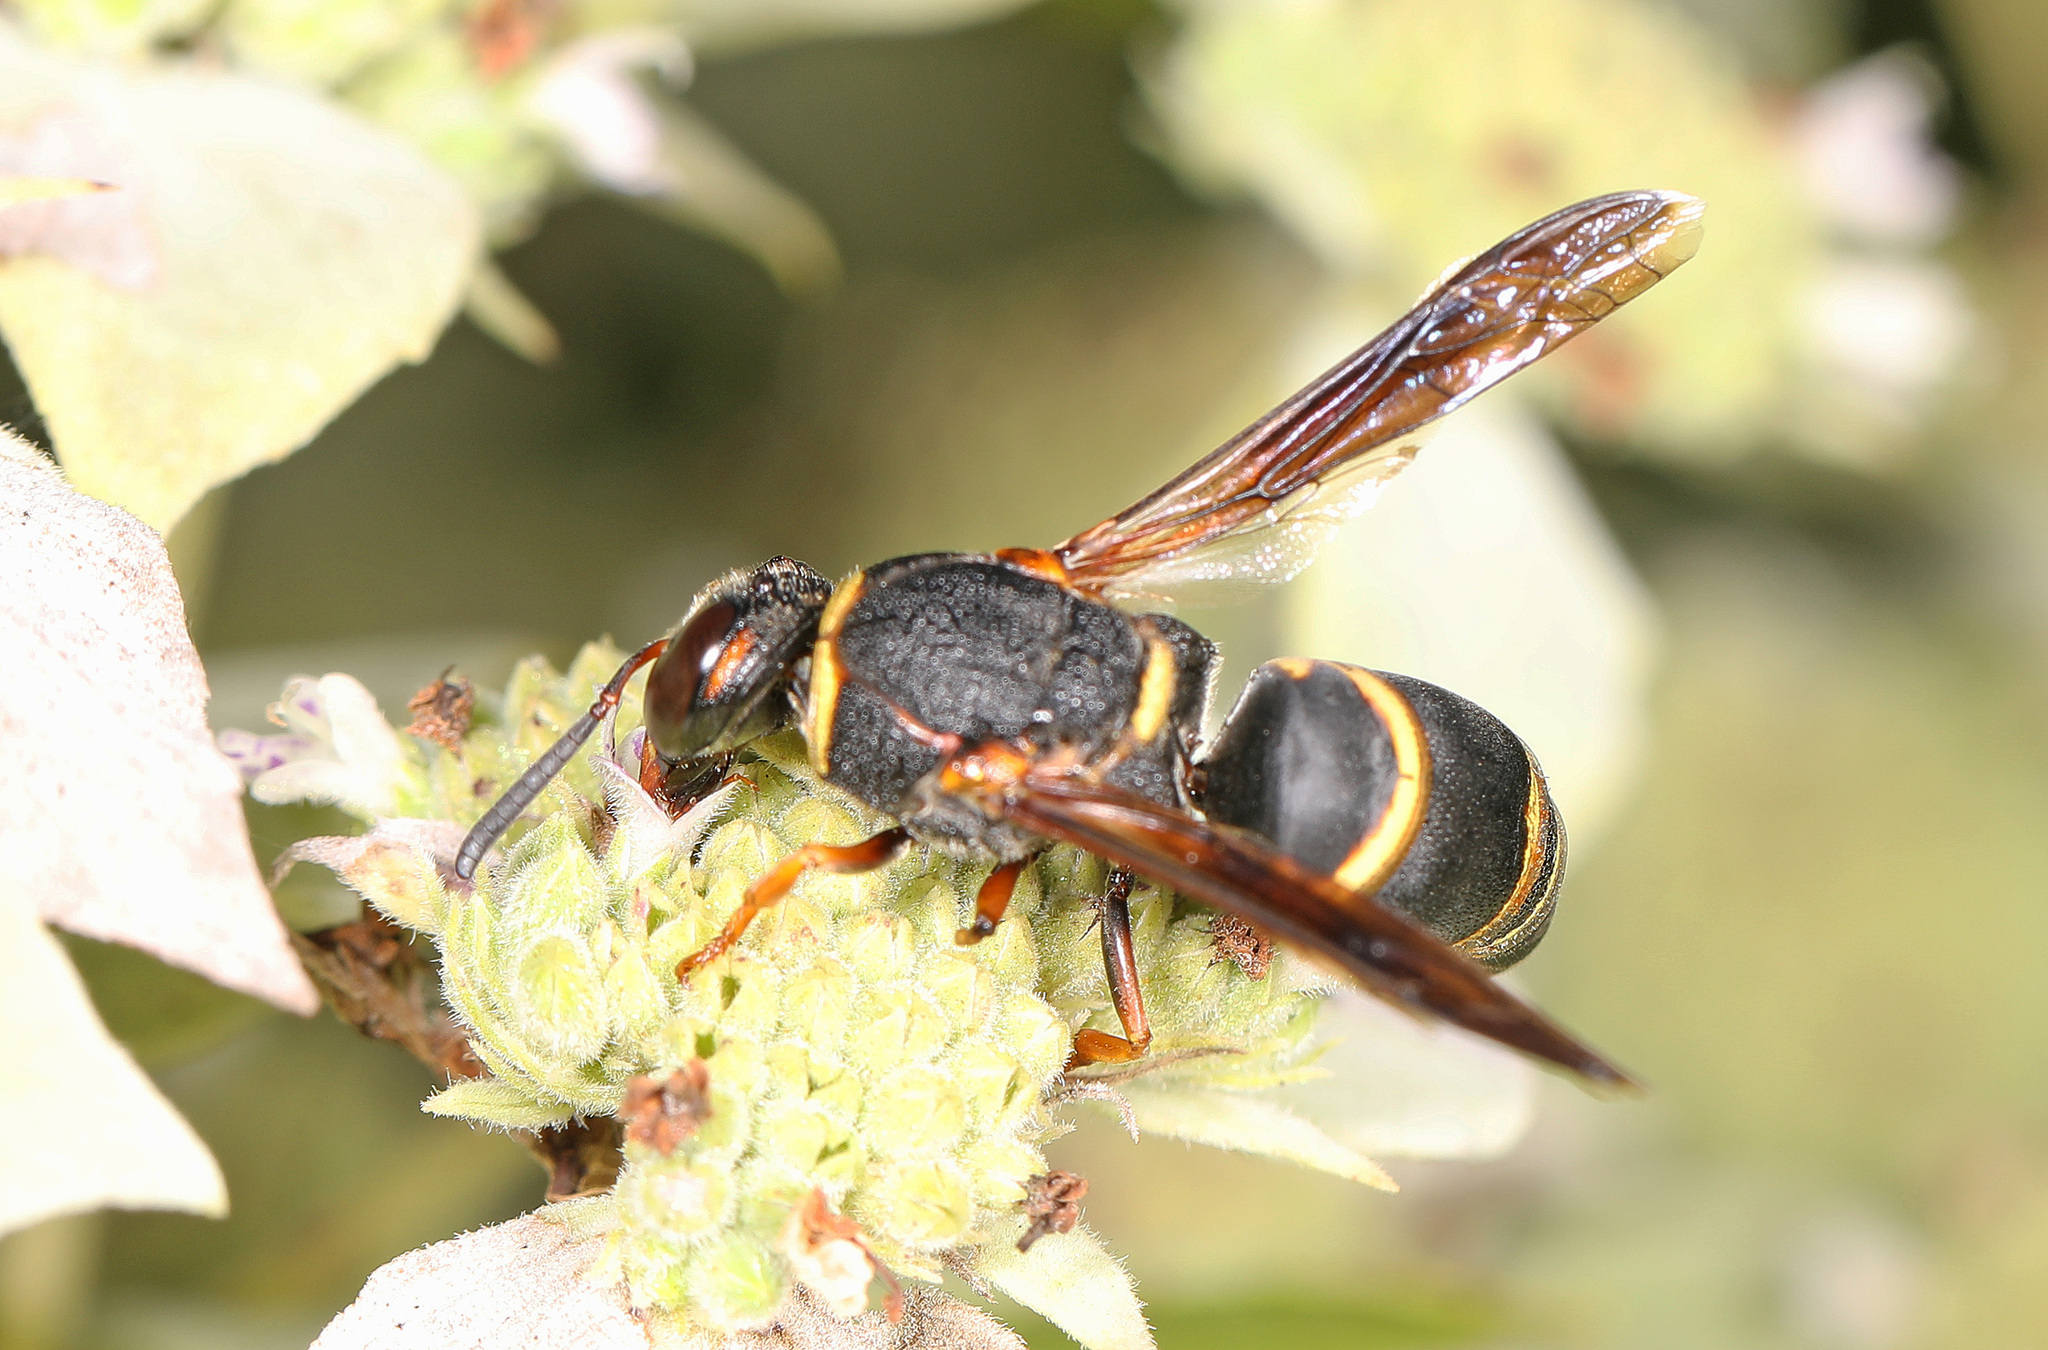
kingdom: Animalia
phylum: Arthropoda
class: Insecta
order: Hymenoptera
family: Eumenidae
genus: Euodynerus
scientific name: Euodynerus hidalgo
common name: Wasp
